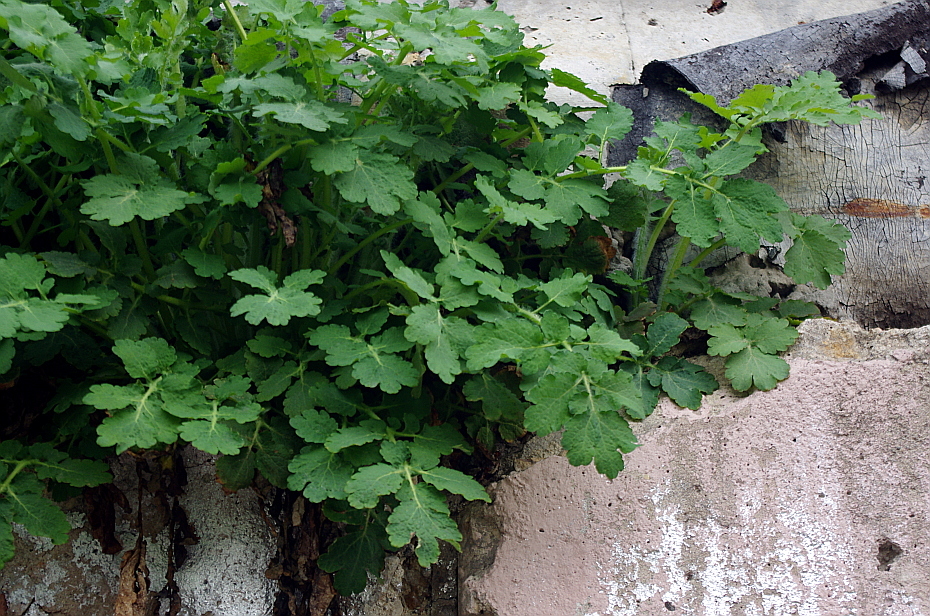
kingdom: Plantae
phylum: Tracheophyta
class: Magnoliopsida
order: Ranunculales
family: Papaveraceae
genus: Chelidonium
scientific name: Chelidonium majus
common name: Greater celandine
